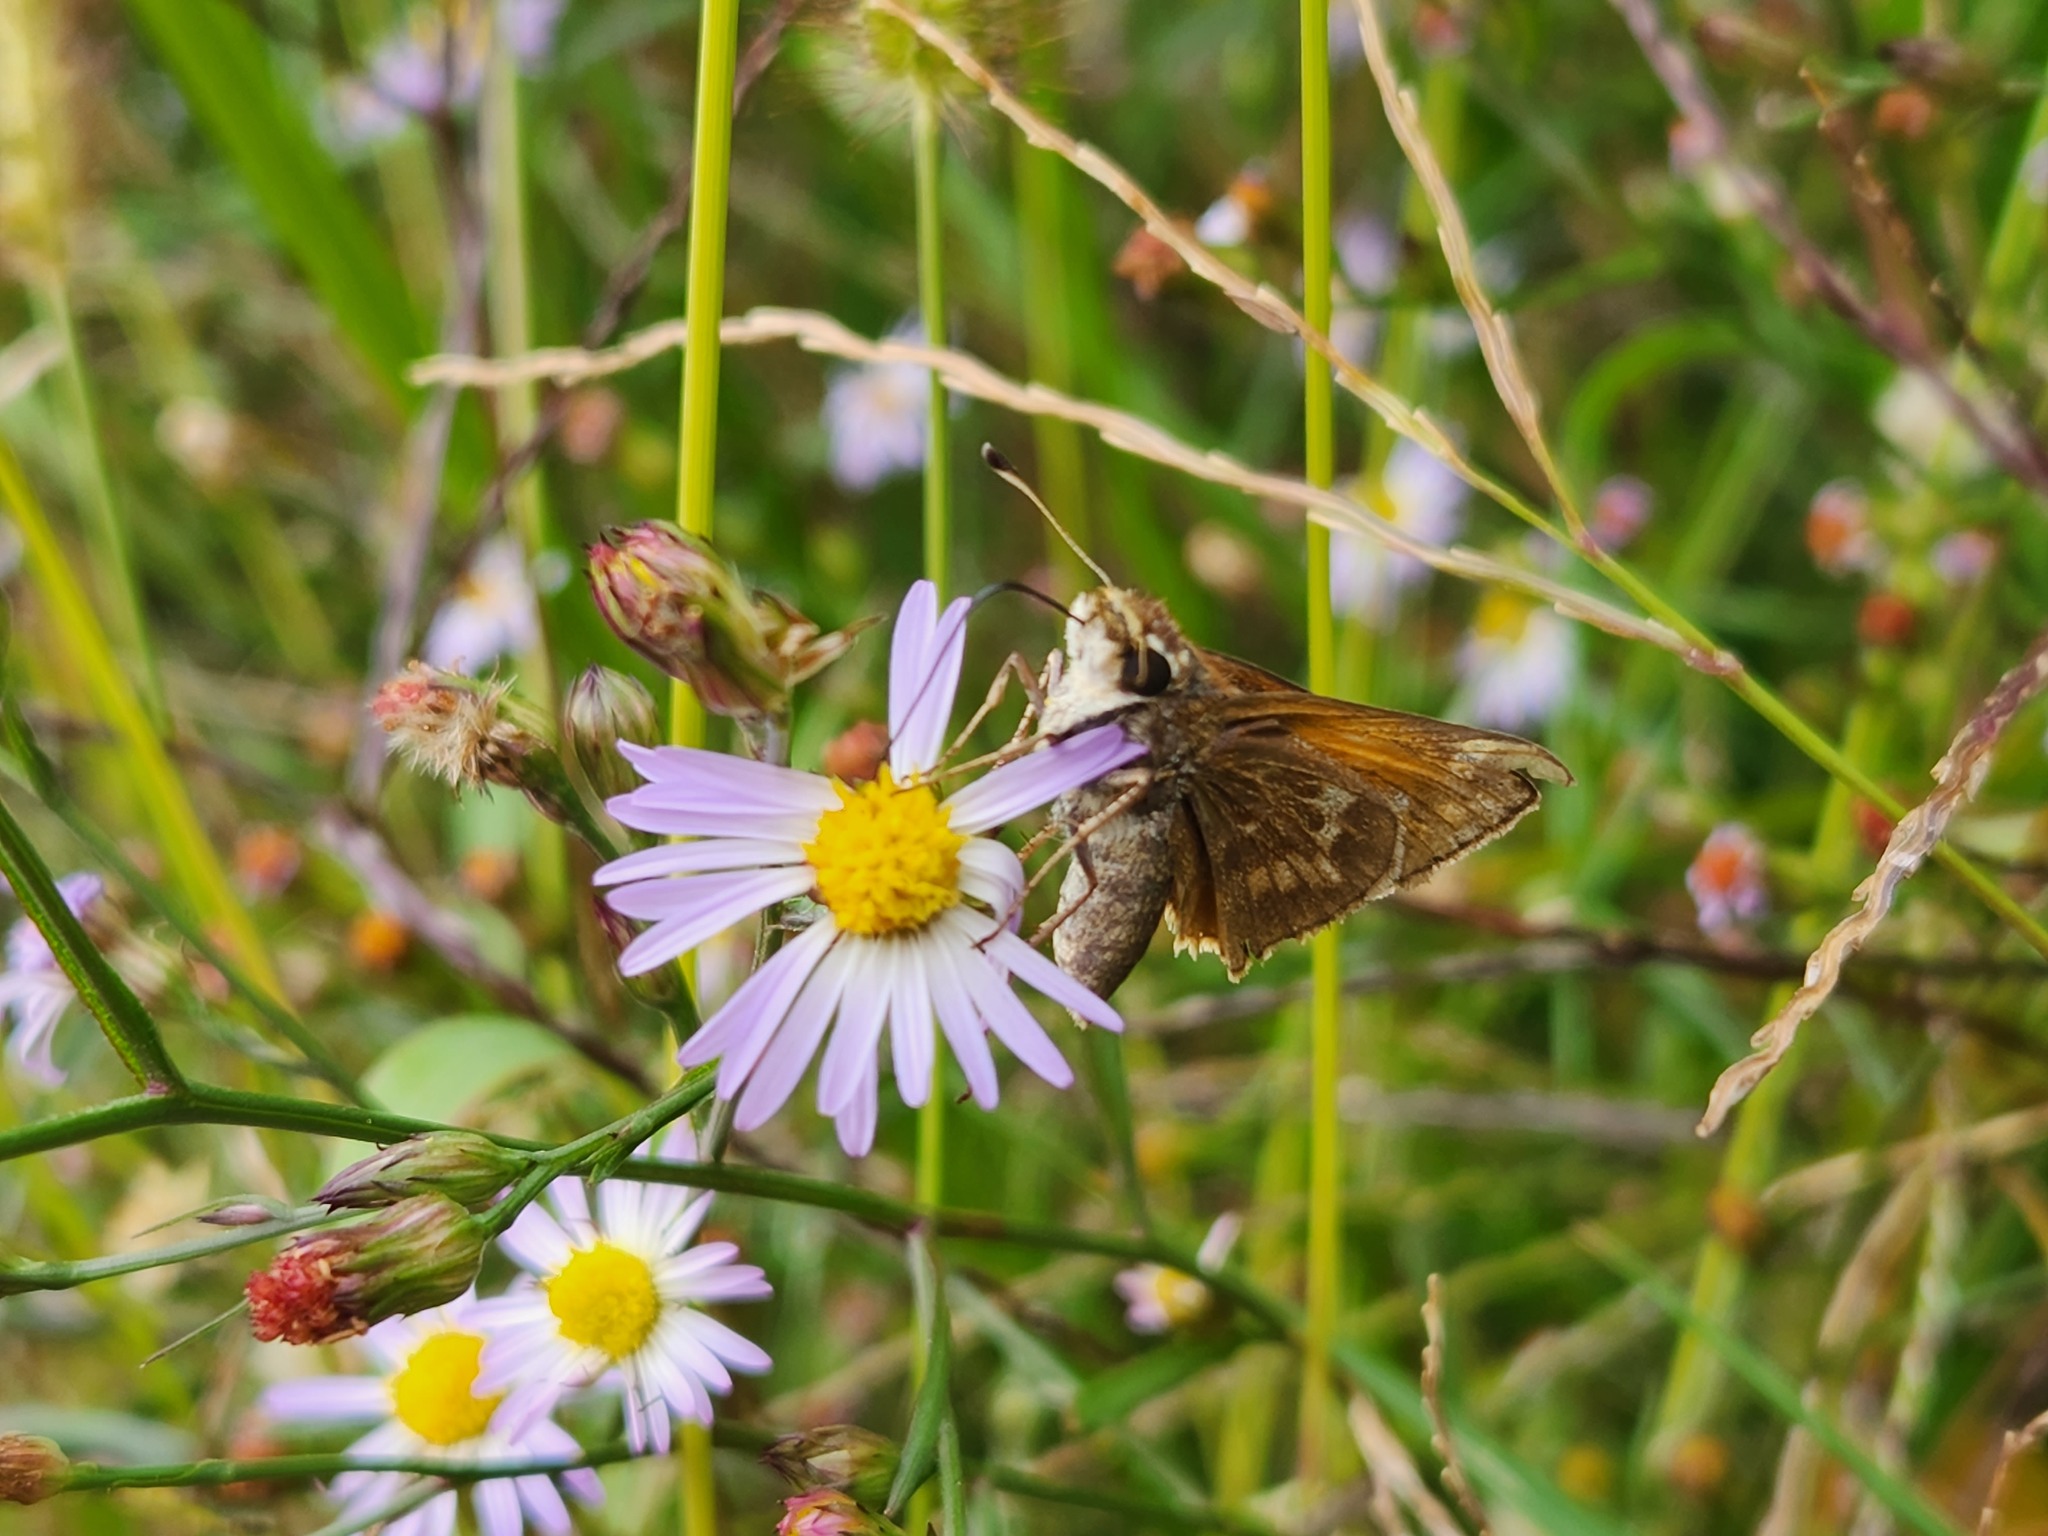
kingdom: Animalia
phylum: Arthropoda
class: Insecta
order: Lepidoptera
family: Hesperiidae
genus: Atalopedes
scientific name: Atalopedes
